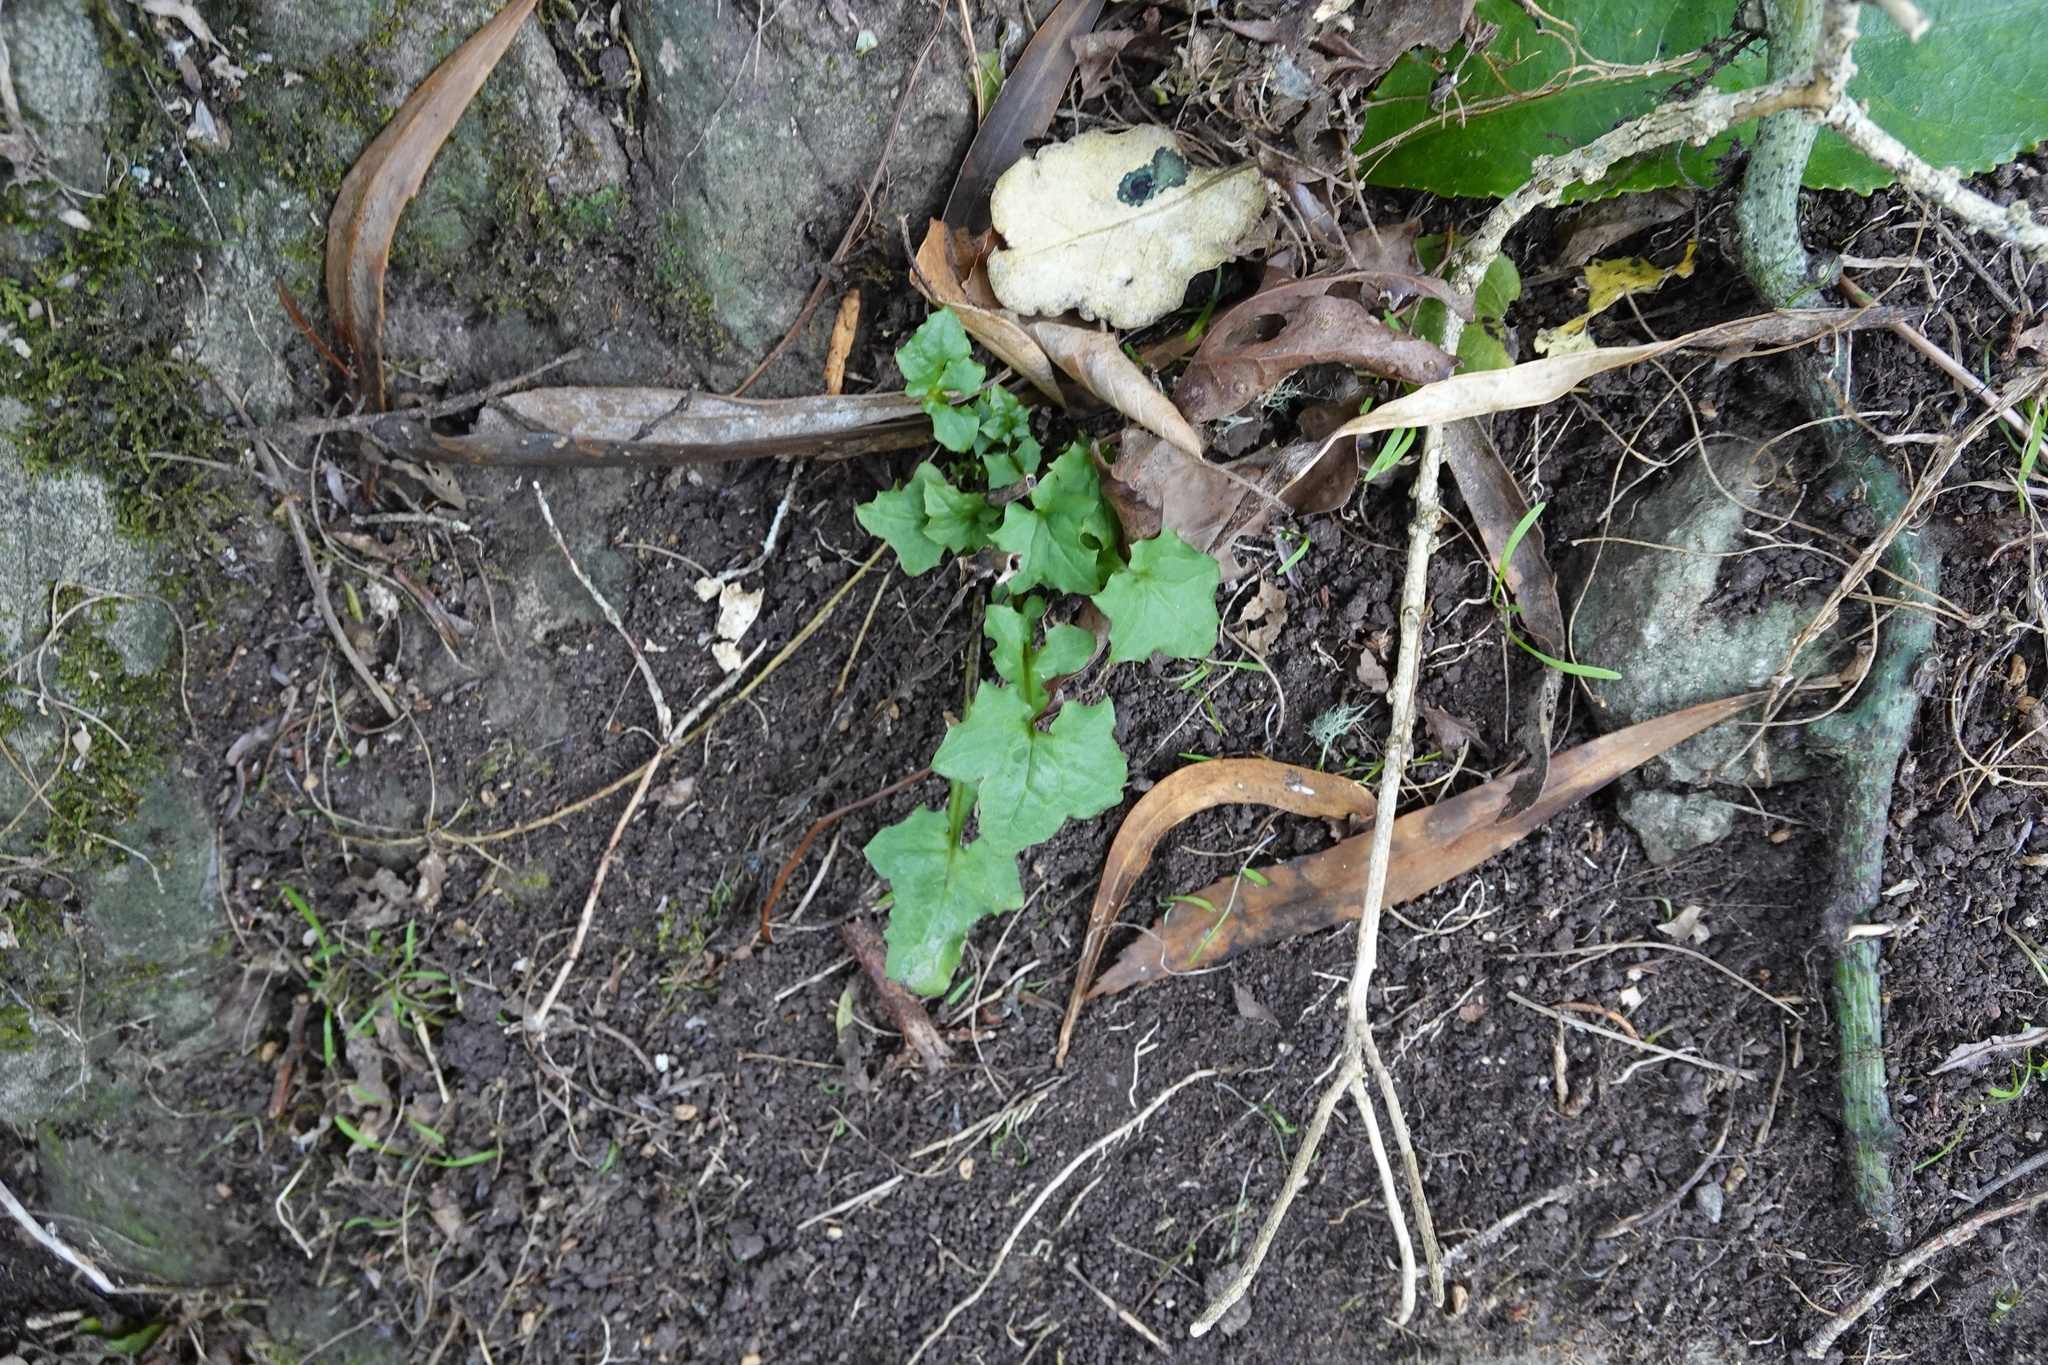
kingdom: Plantae
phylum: Tracheophyta
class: Magnoliopsida
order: Asterales
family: Asteraceae
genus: Mycelis
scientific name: Mycelis muralis
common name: Wall lettuce
